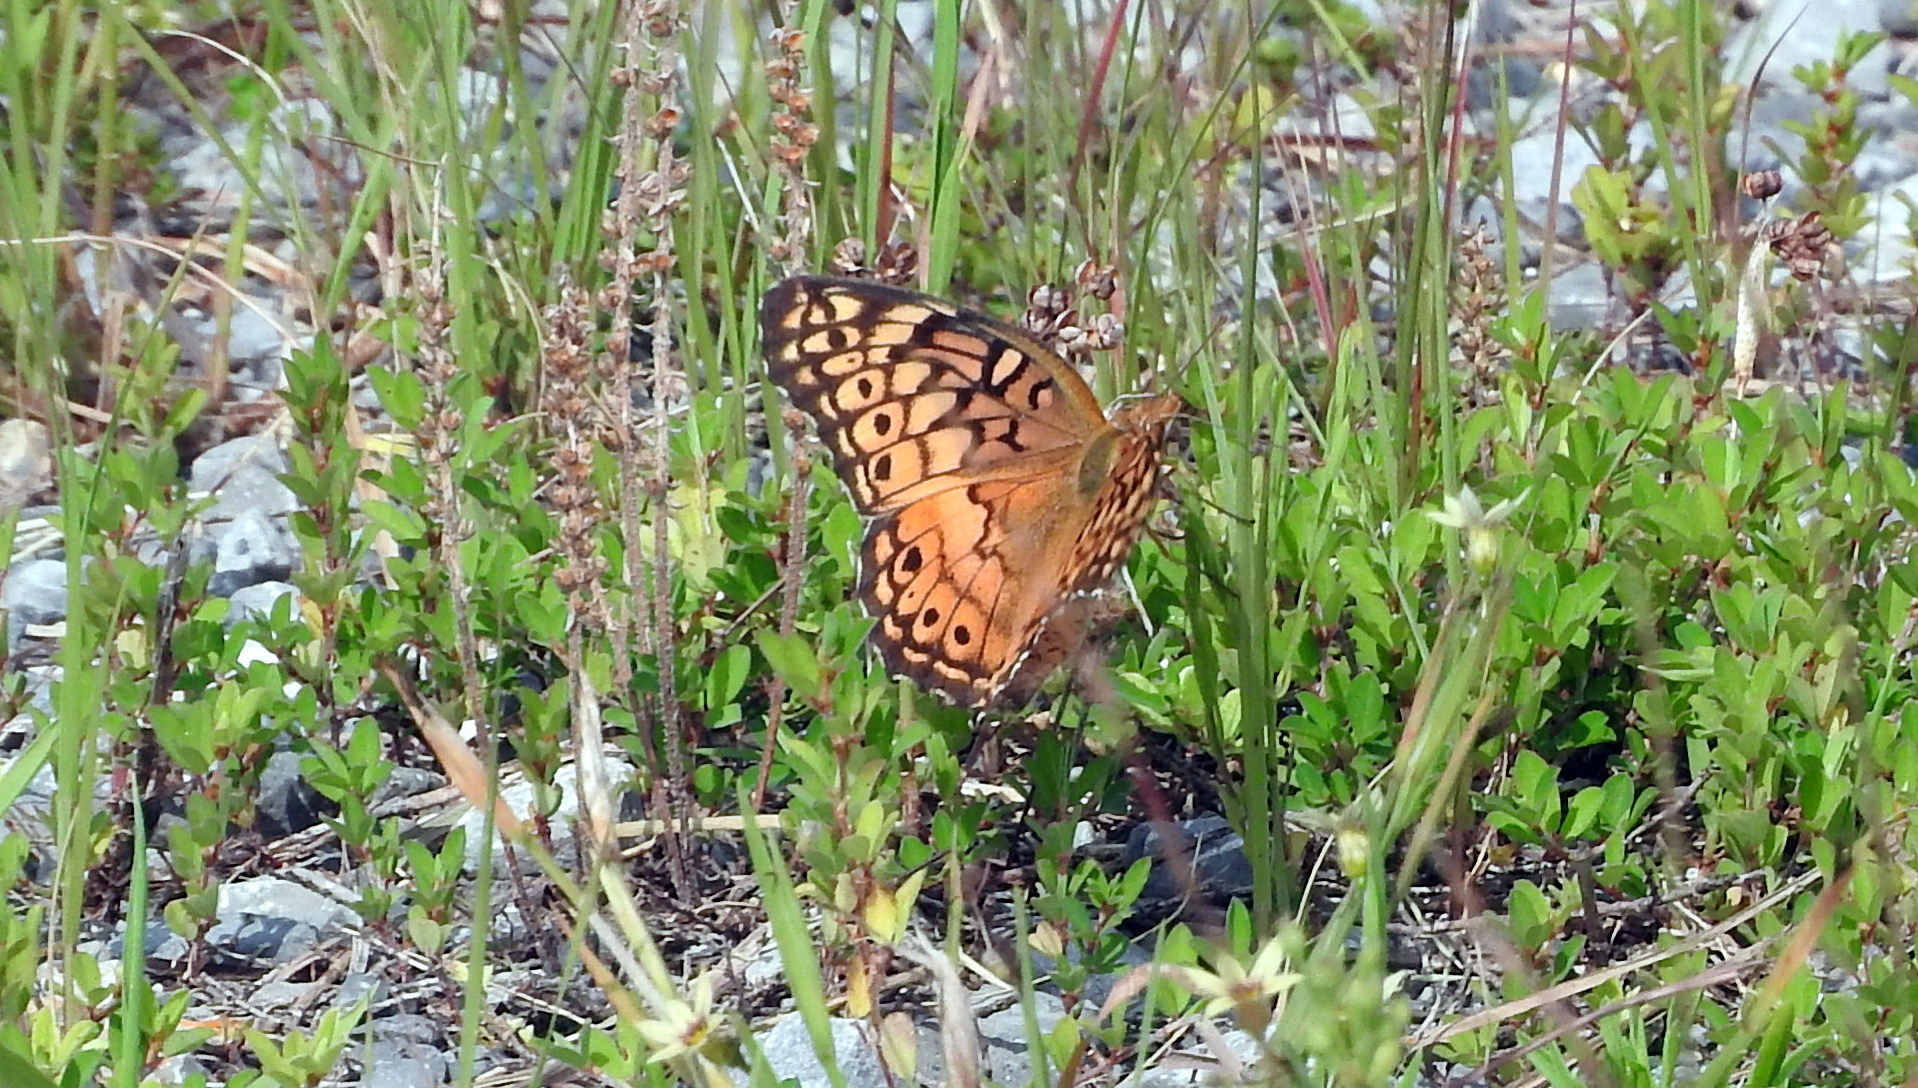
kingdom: Animalia
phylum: Arthropoda
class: Insecta
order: Lepidoptera
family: Nymphalidae
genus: Euptoieta
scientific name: Euptoieta claudia
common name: Variegated fritillary
